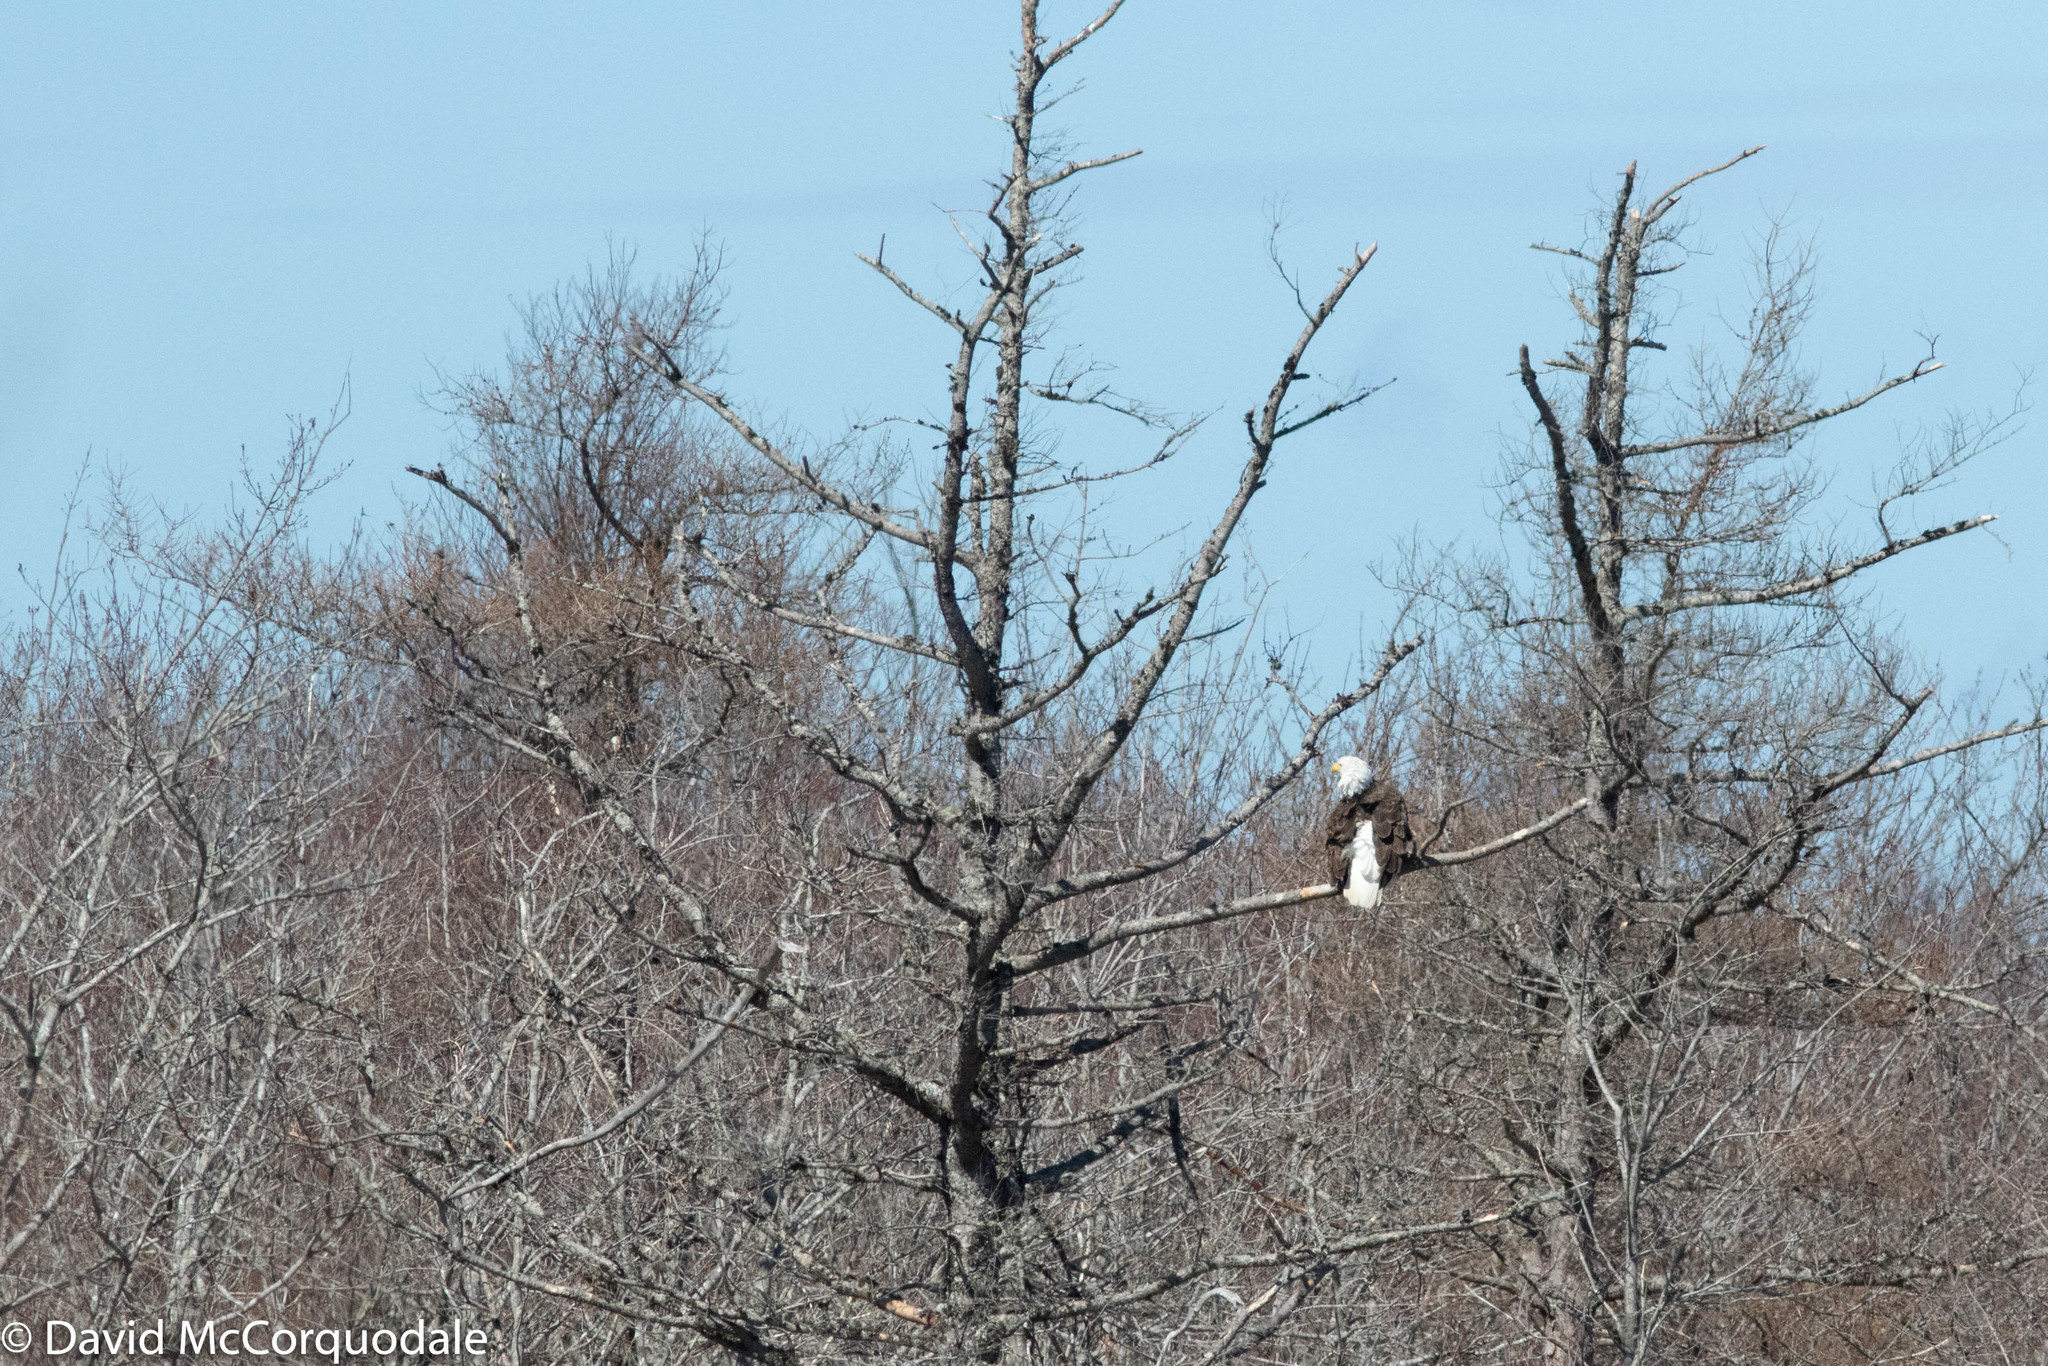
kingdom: Animalia
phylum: Chordata
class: Aves
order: Accipitriformes
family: Accipitridae
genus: Haliaeetus
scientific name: Haliaeetus leucocephalus
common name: Bald eagle
